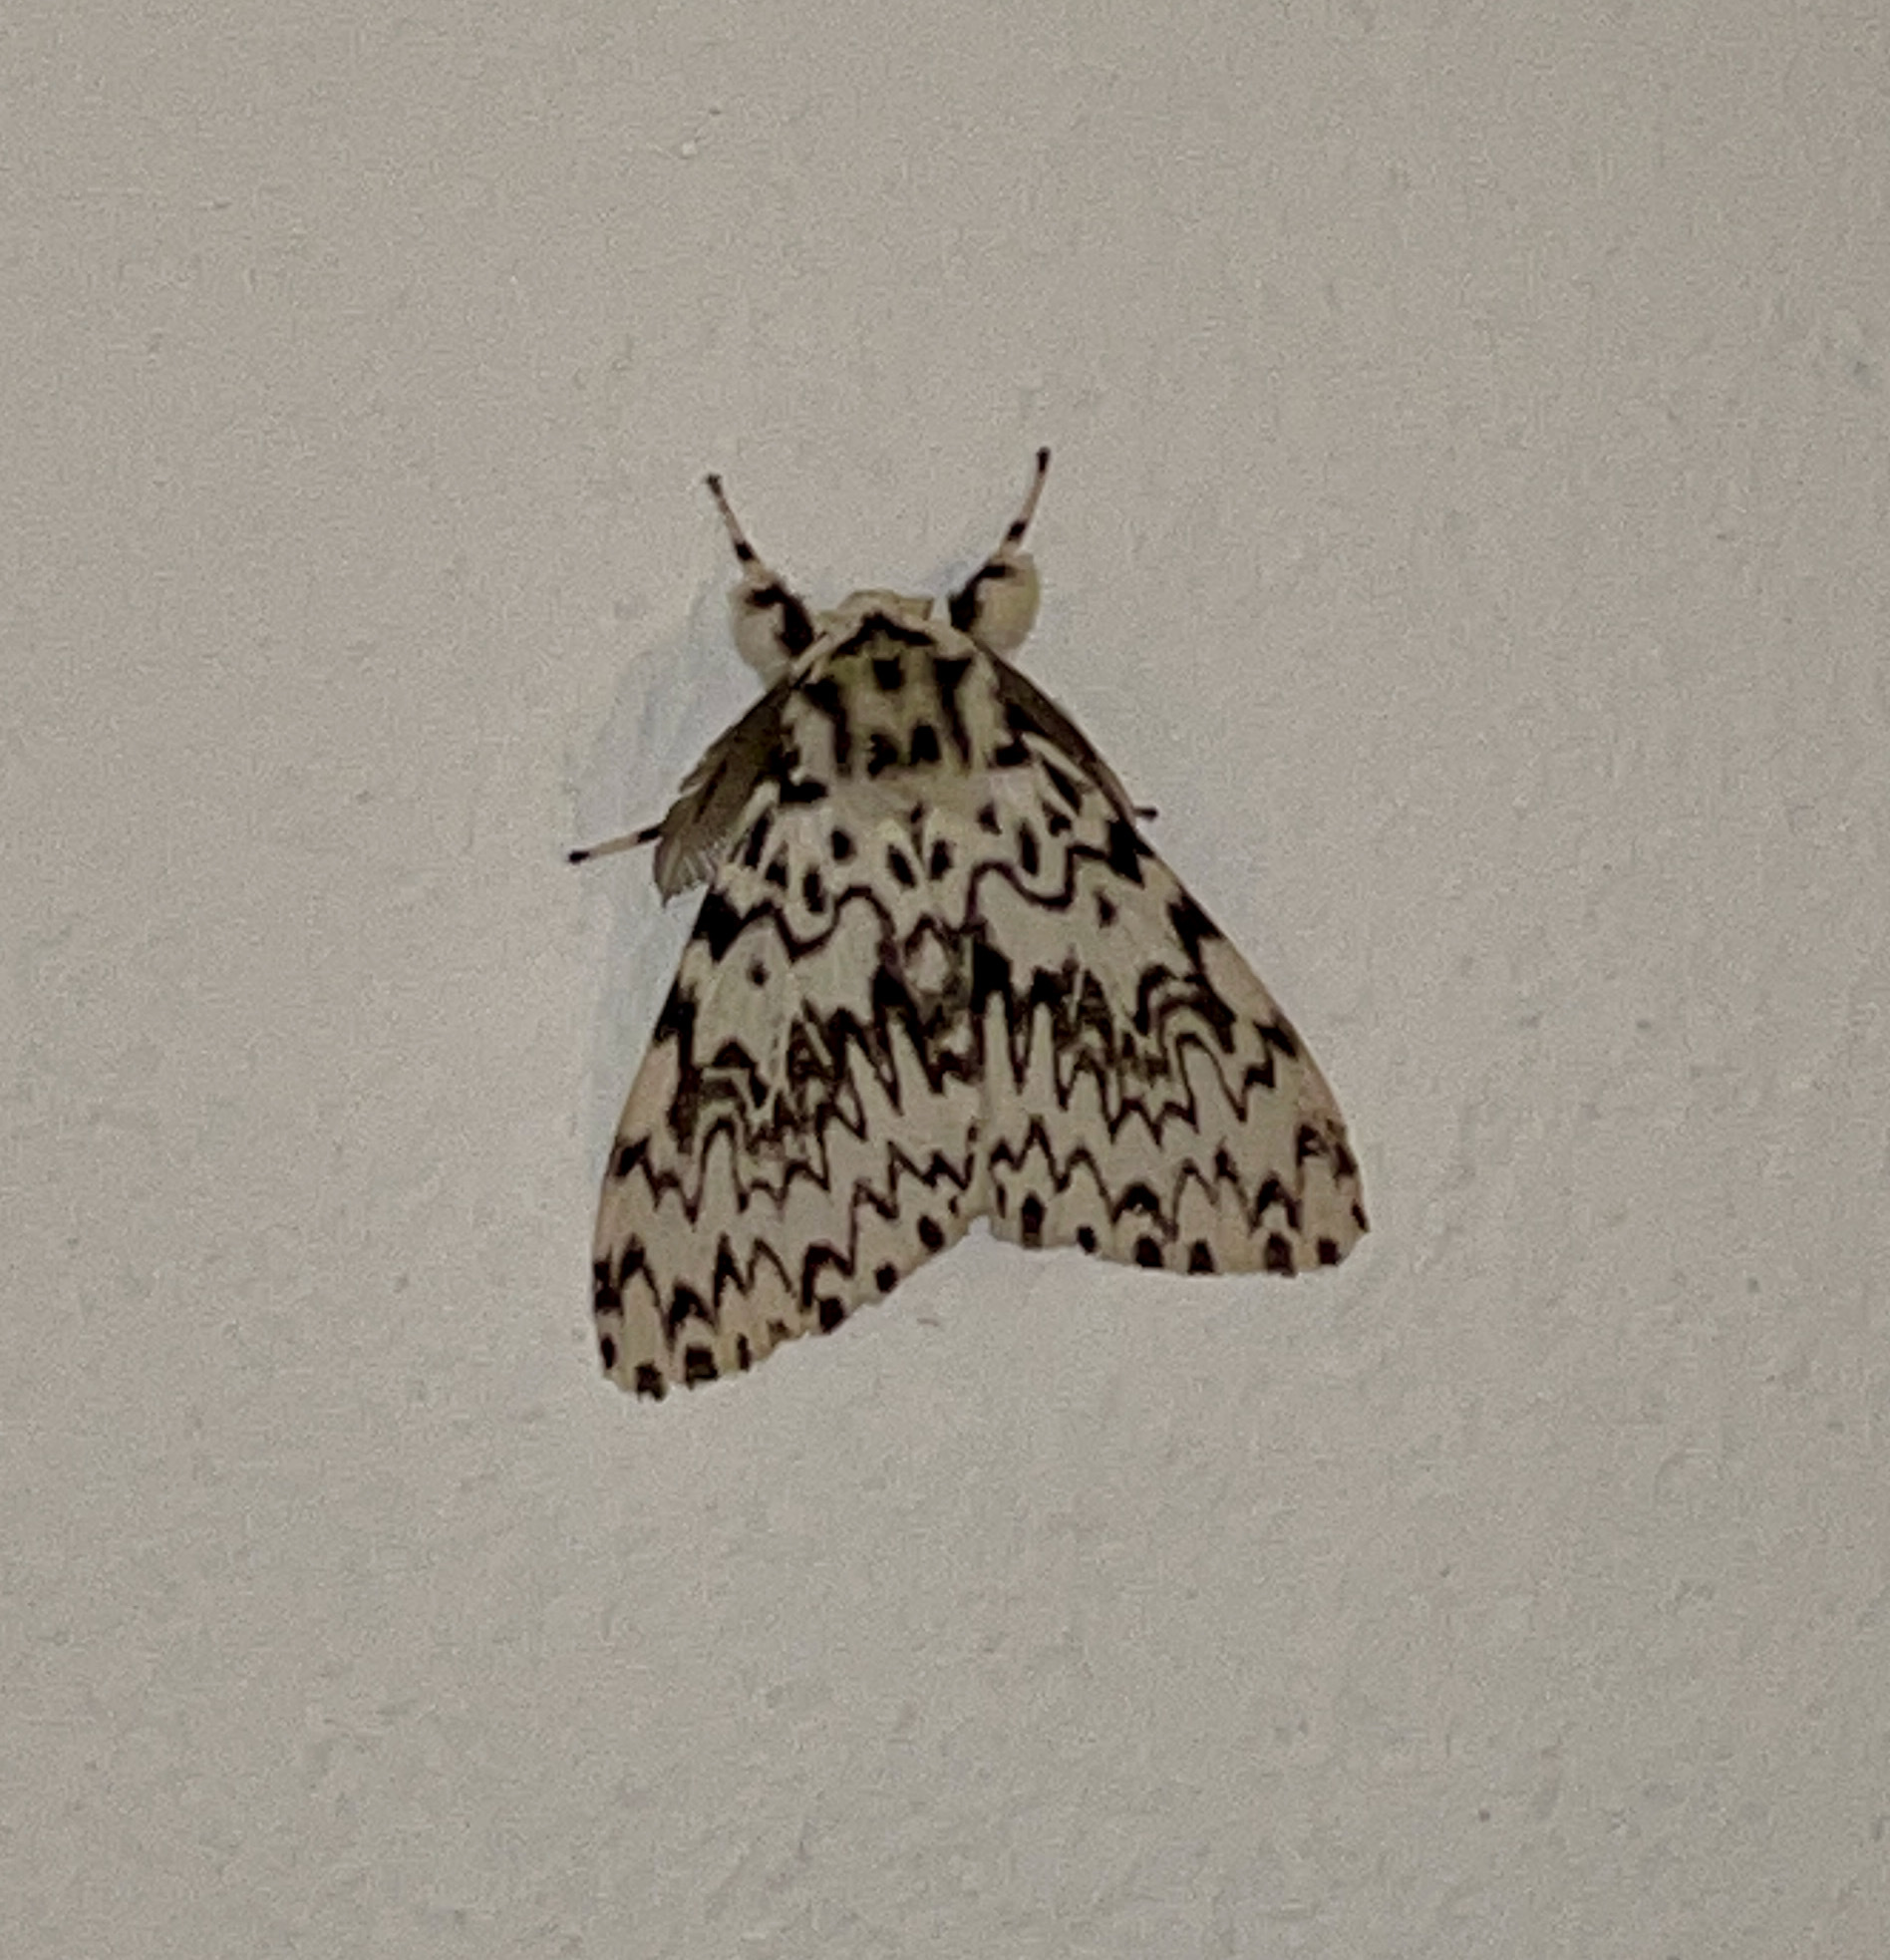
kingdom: Animalia
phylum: Arthropoda
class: Insecta
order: Lepidoptera
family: Erebidae
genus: Lymantria
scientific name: Lymantria monacha
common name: Black arches
